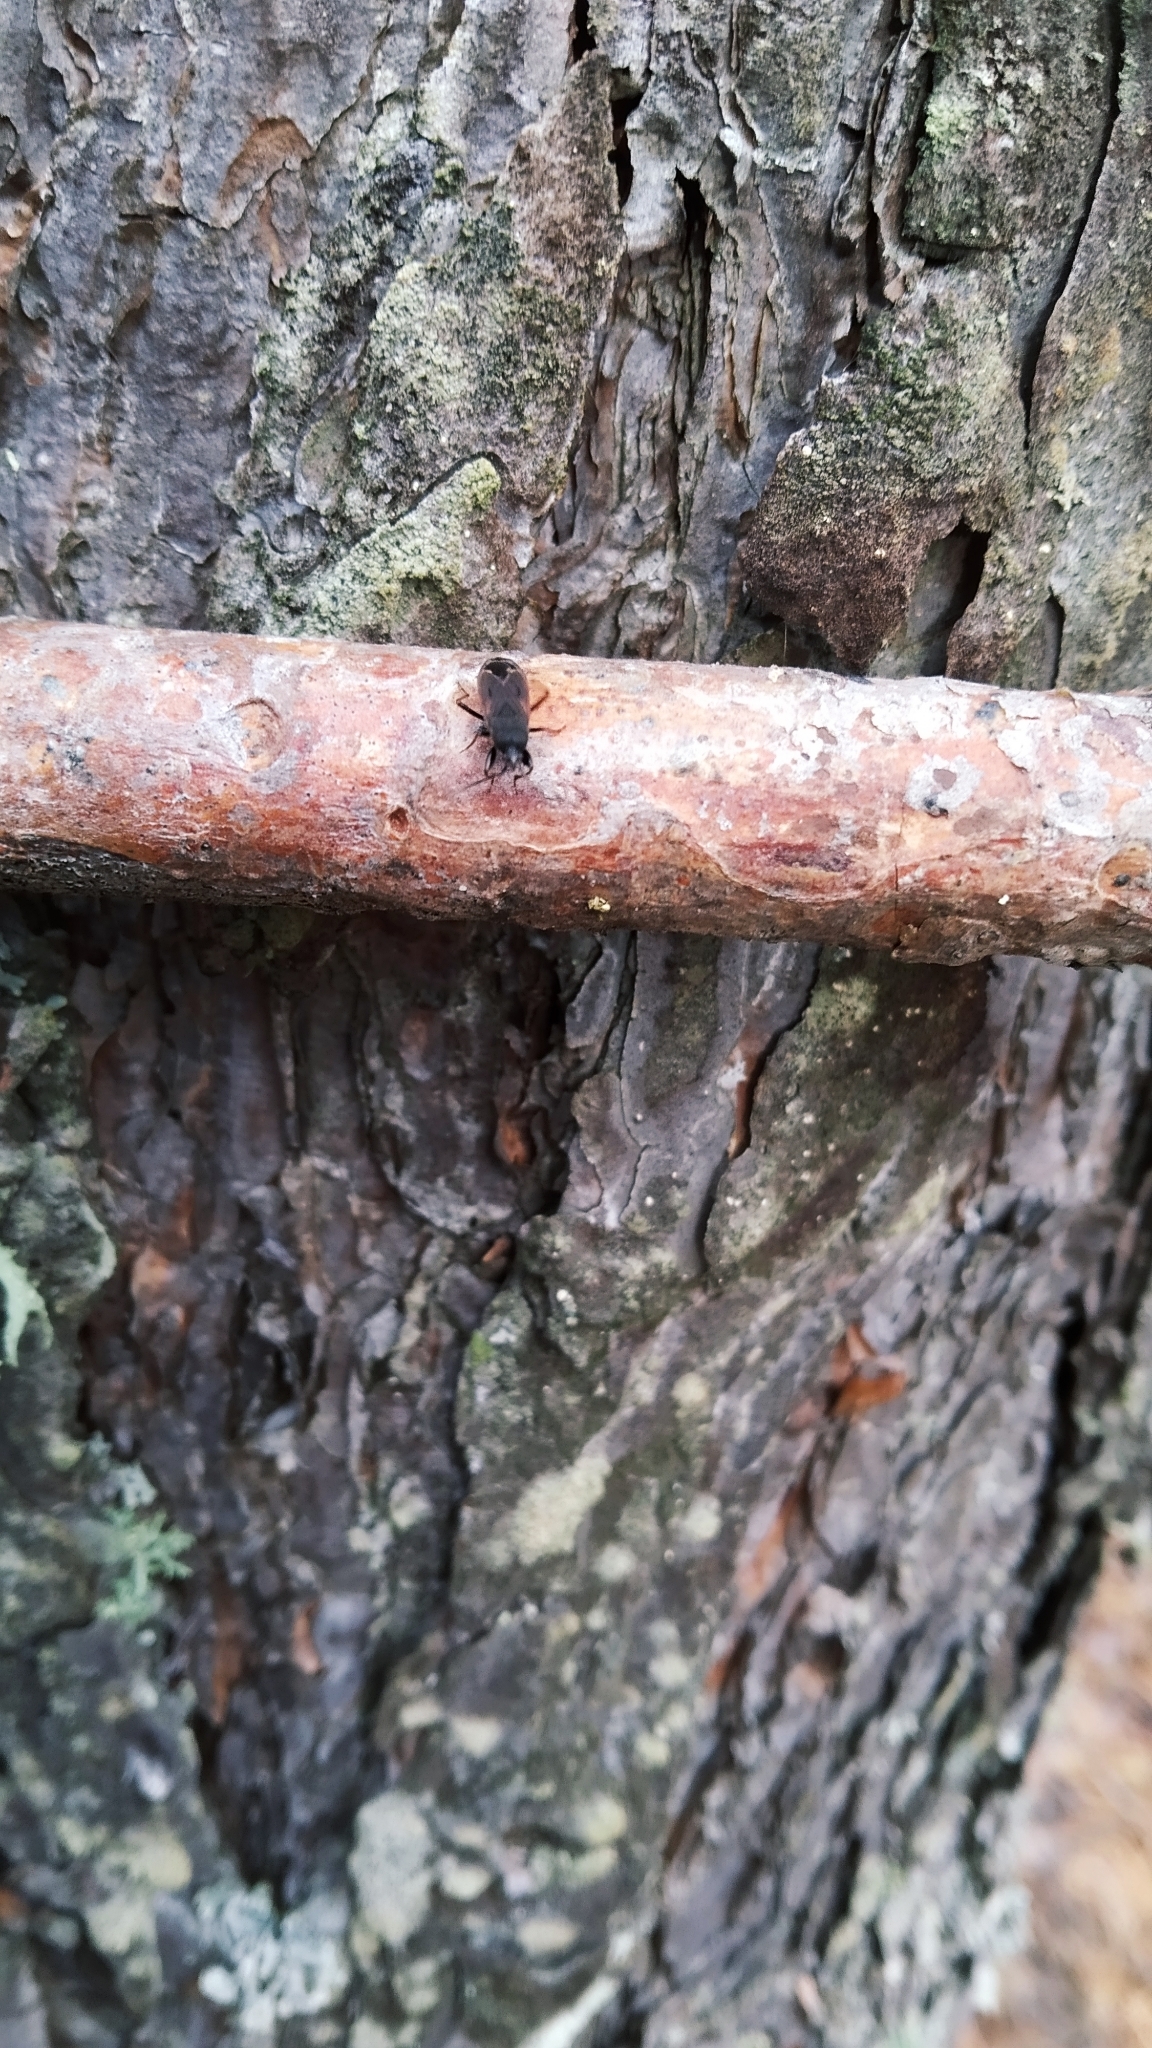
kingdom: Animalia
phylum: Arthropoda
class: Insecta
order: Hemiptera
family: Rhyparochromidae
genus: Eremocoris
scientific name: Eremocoris plebejus
